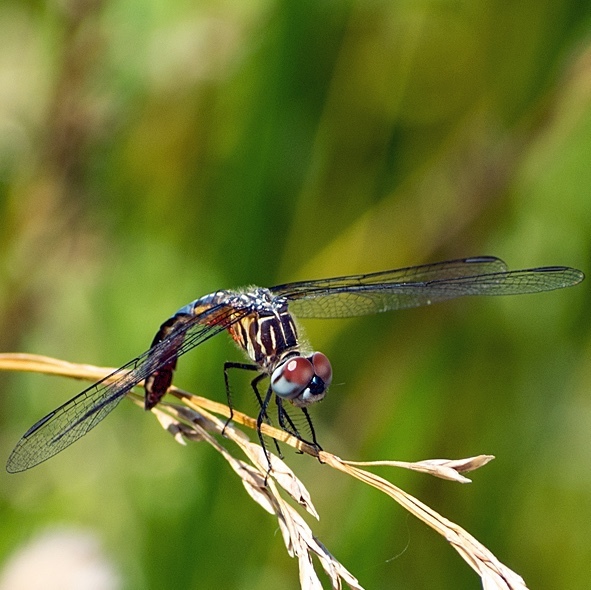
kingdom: Animalia
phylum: Arthropoda
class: Insecta
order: Odonata
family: Libellulidae
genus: Pachydiplax
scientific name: Pachydiplax longipennis
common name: Blue dasher
